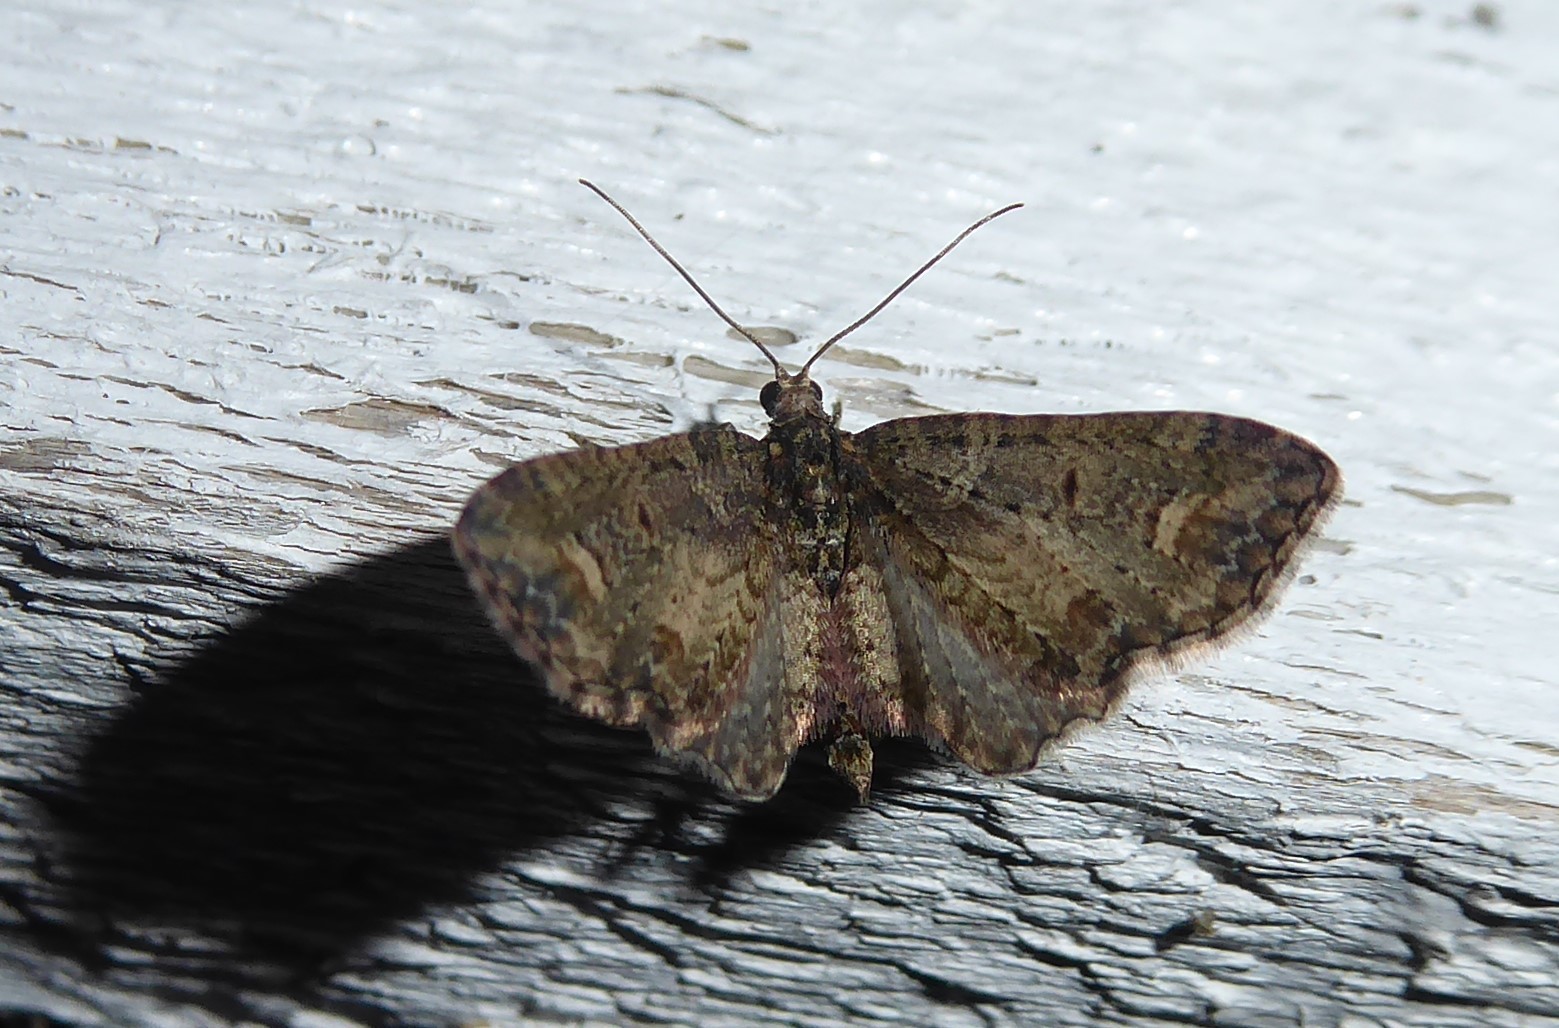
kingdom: Animalia
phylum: Arthropoda
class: Insecta
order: Lepidoptera
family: Geometridae
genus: Idaea
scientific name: Idaea mutanda
